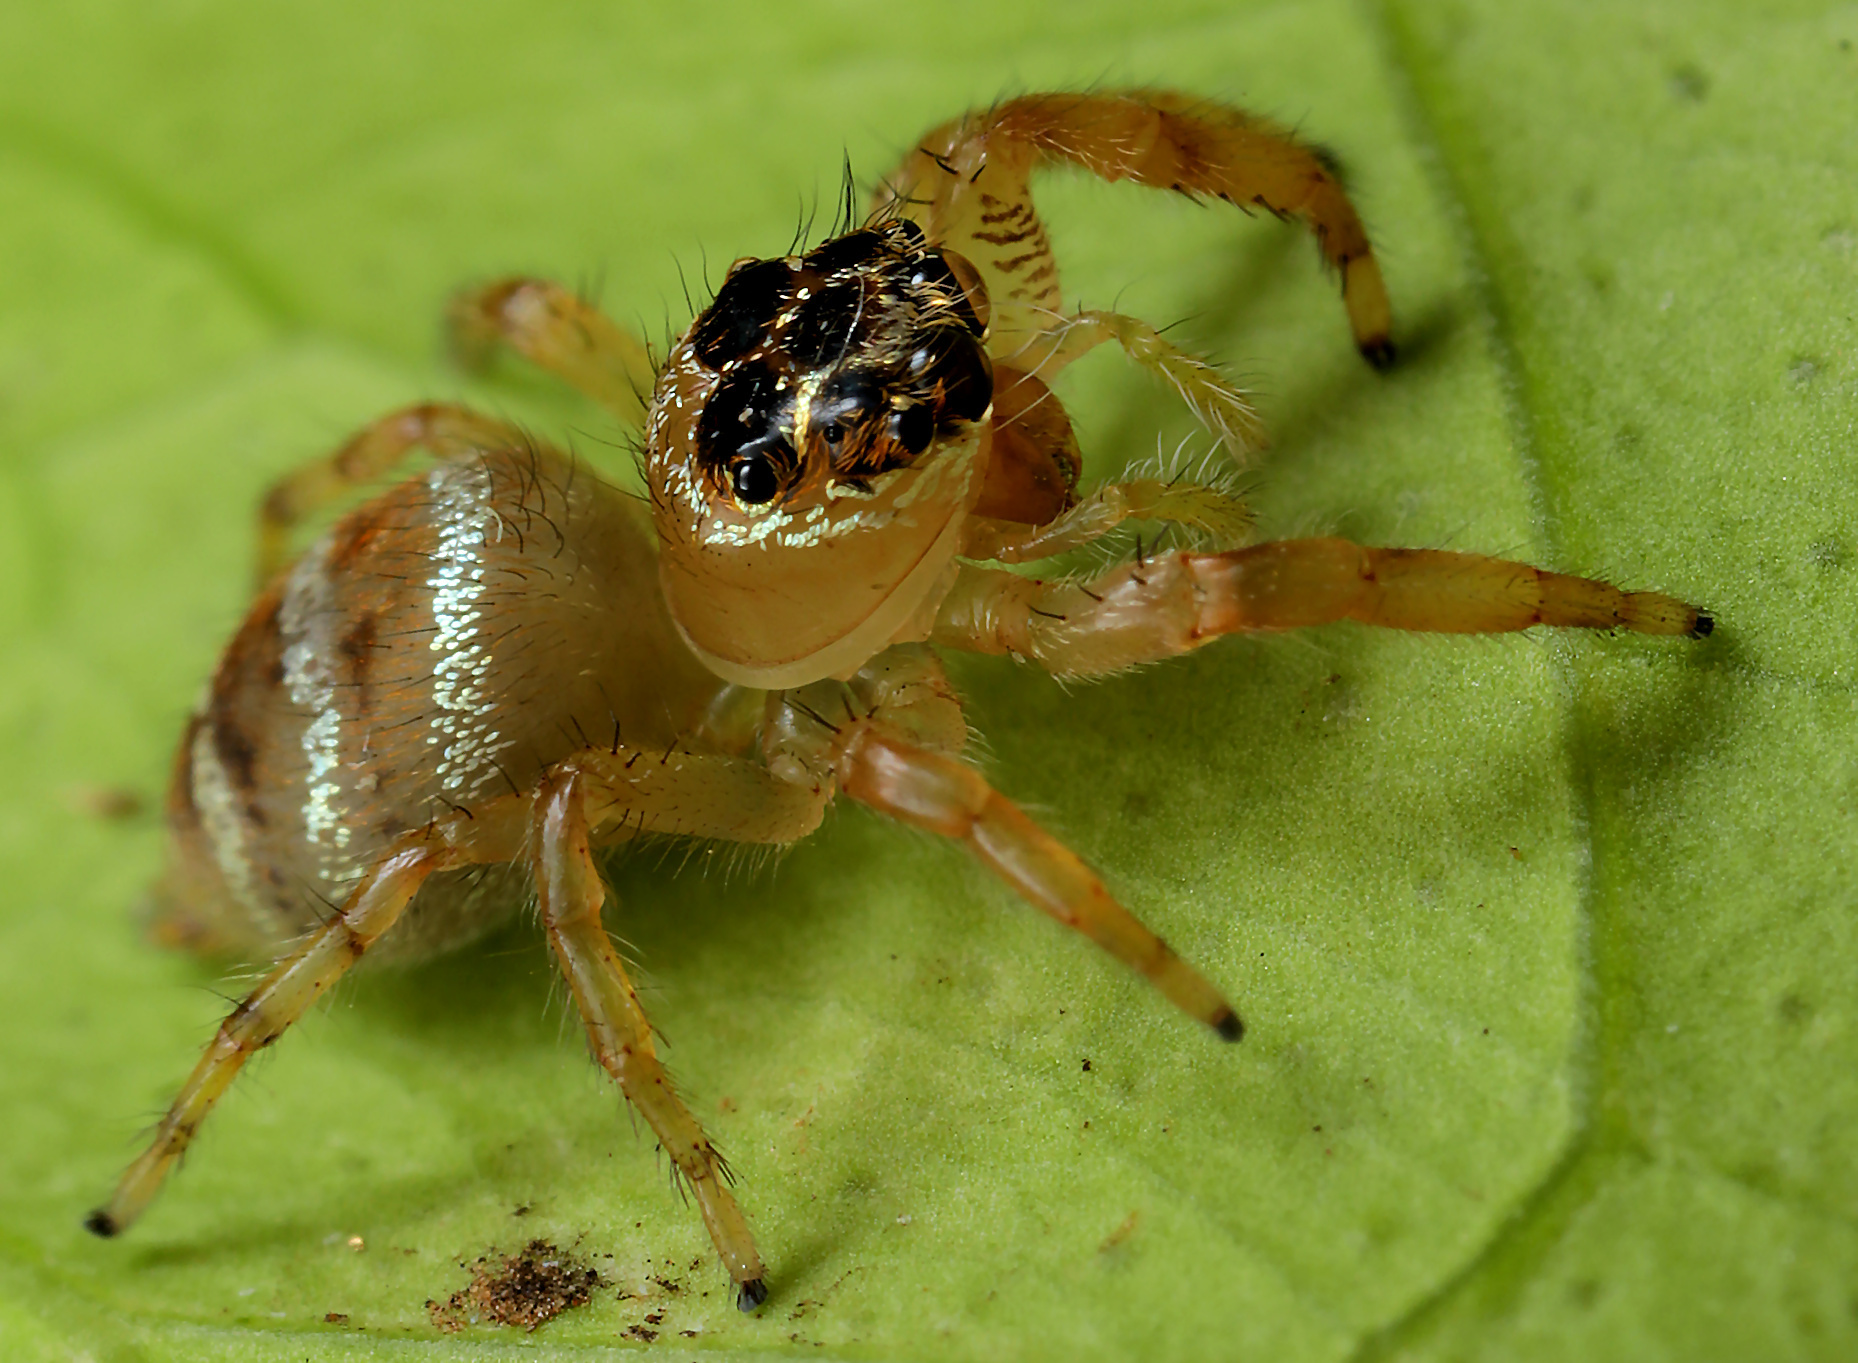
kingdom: Animalia
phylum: Arthropoda
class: Arachnida
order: Araneae
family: Salticidae
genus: Thyene
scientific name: Thyene natalii
